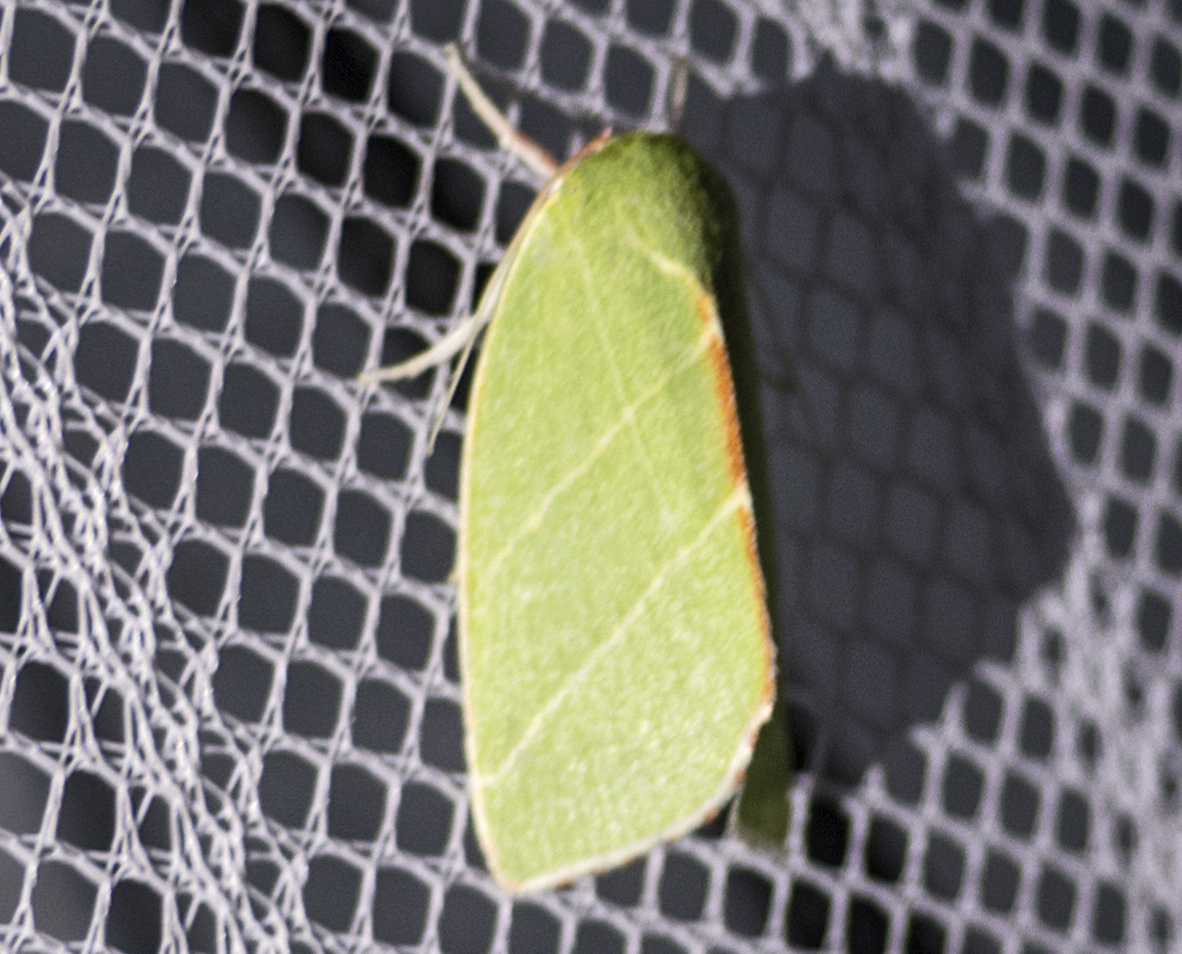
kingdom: Animalia
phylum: Arthropoda
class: Insecta
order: Lepidoptera
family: Nolidae
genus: Bena
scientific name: Bena bicolorana
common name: Scarce silver-lines
